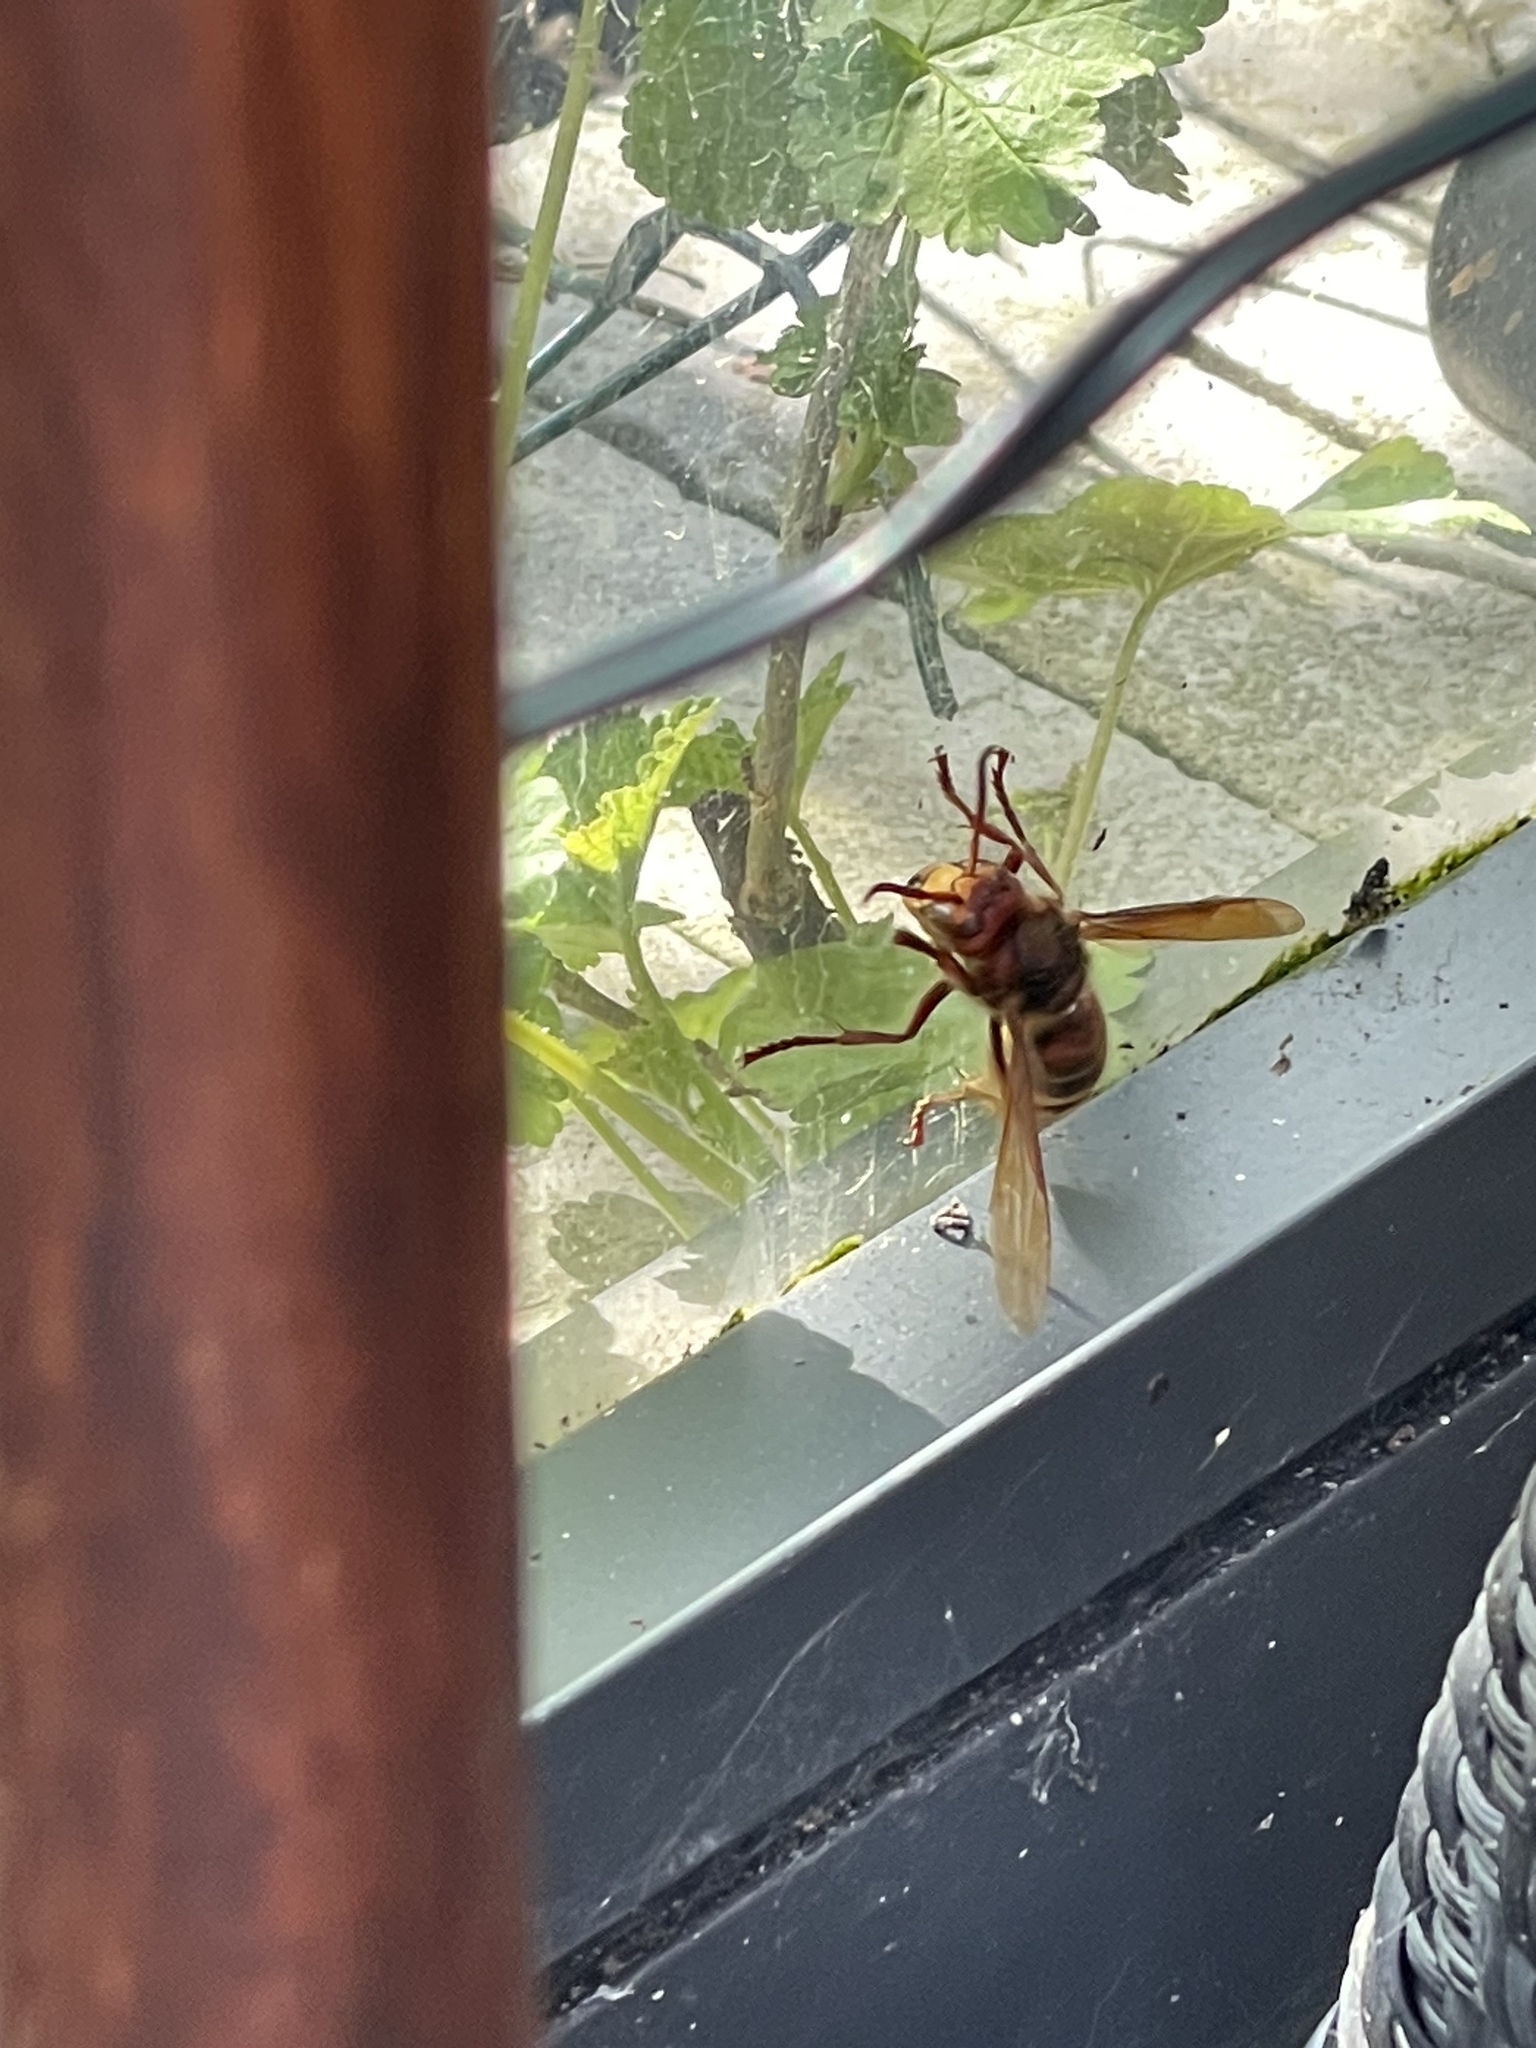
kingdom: Animalia
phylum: Arthropoda
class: Insecta
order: Hymenoptera
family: Vespidae
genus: Vespa
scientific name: Vespa crabro
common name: Hornet
